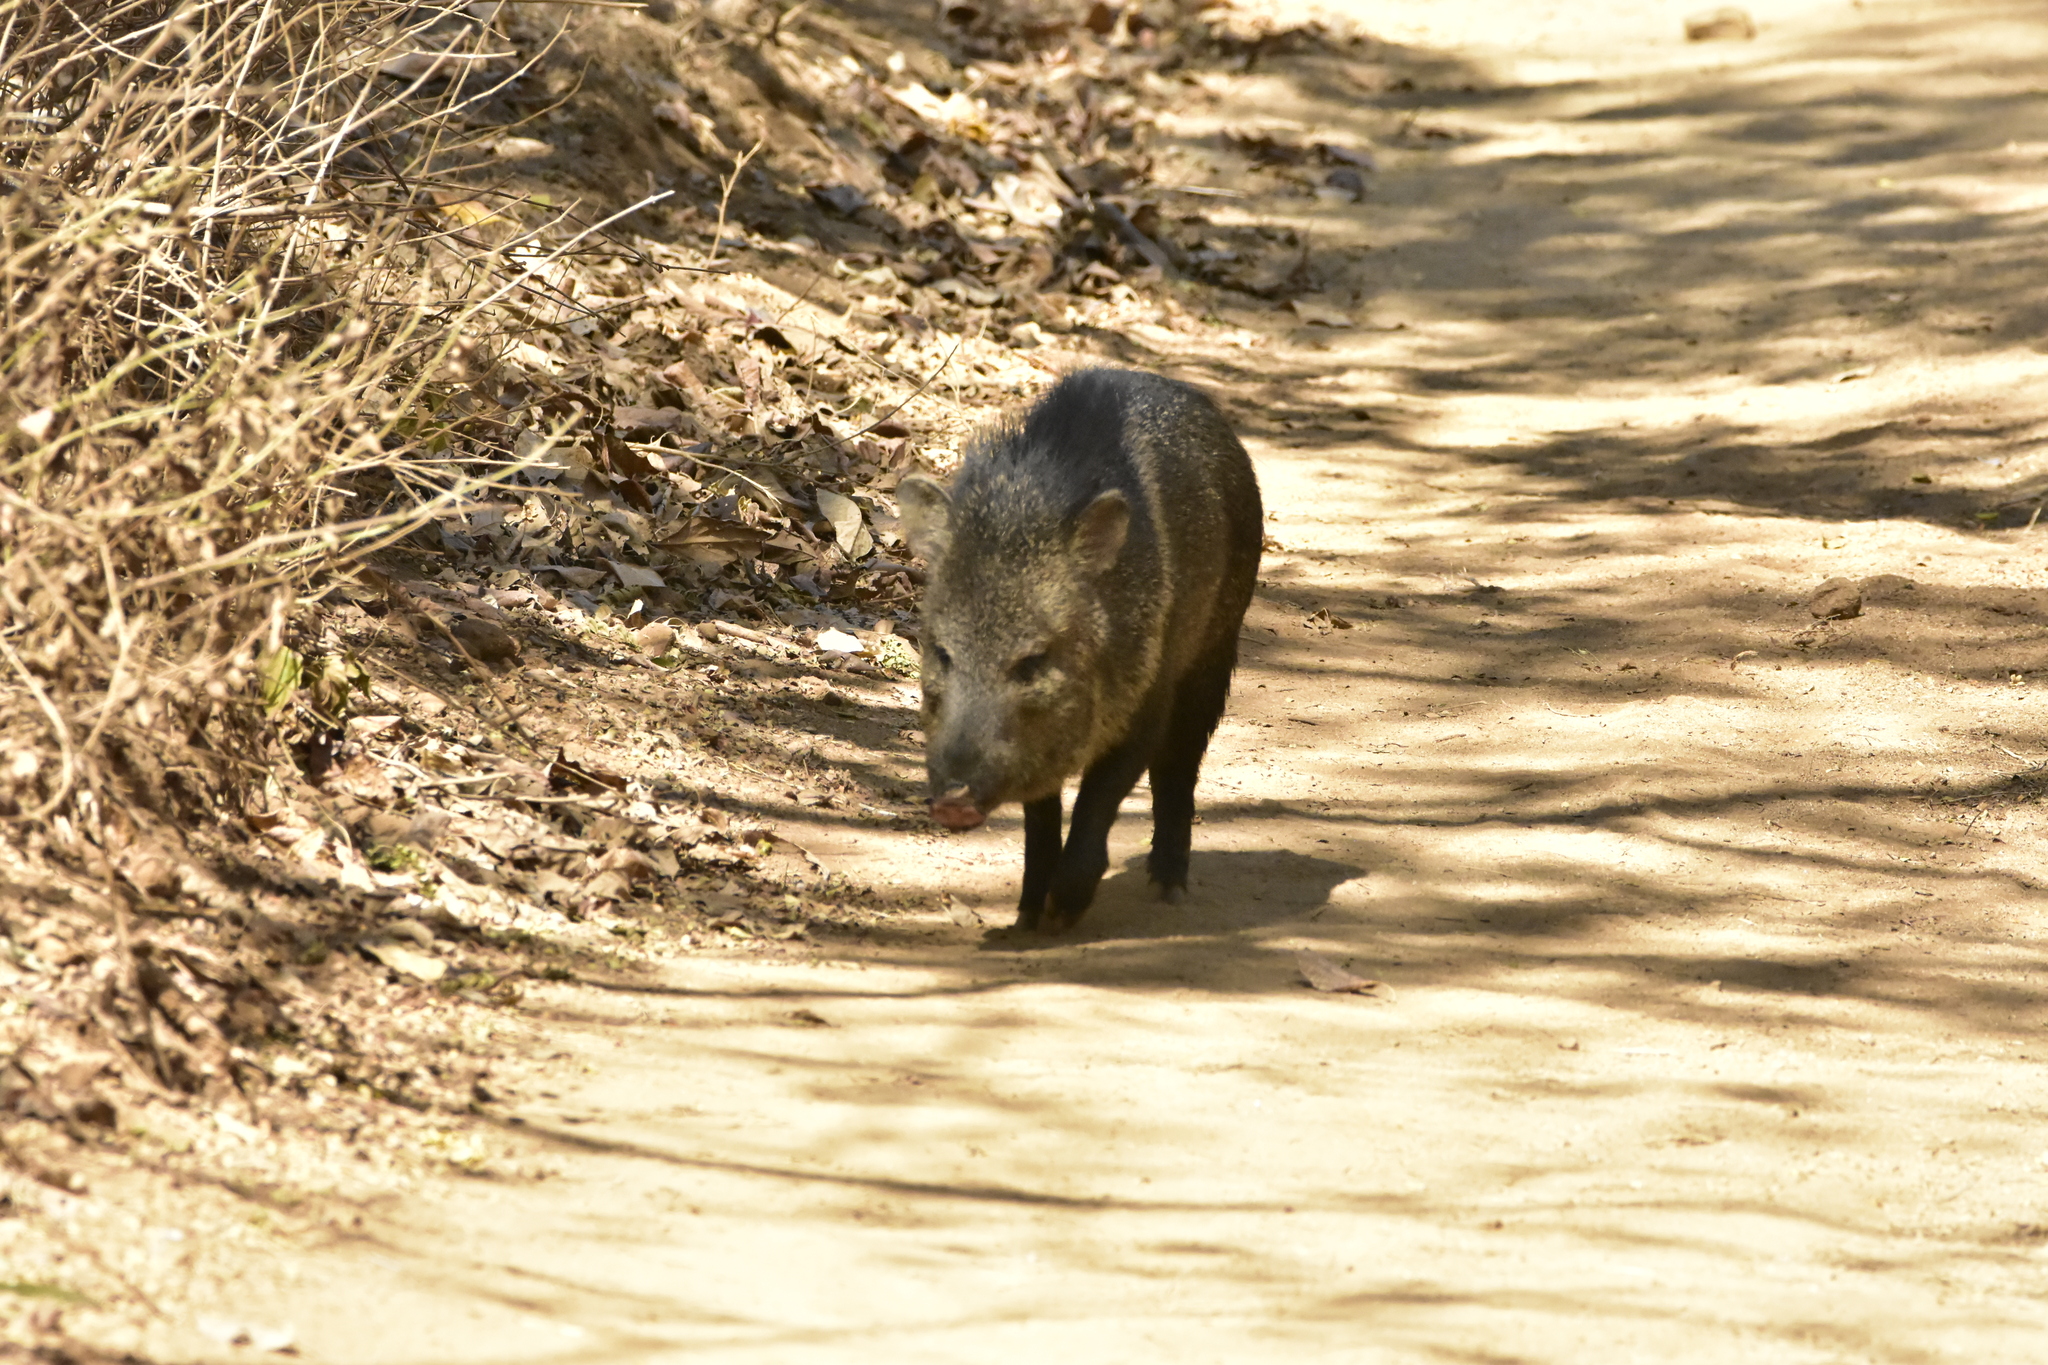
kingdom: Animalia
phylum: Chordata
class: Mammalia
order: Artiodactyla
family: Tayassuidae
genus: Pecari
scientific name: Pecari tajacu
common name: Collared peccary
